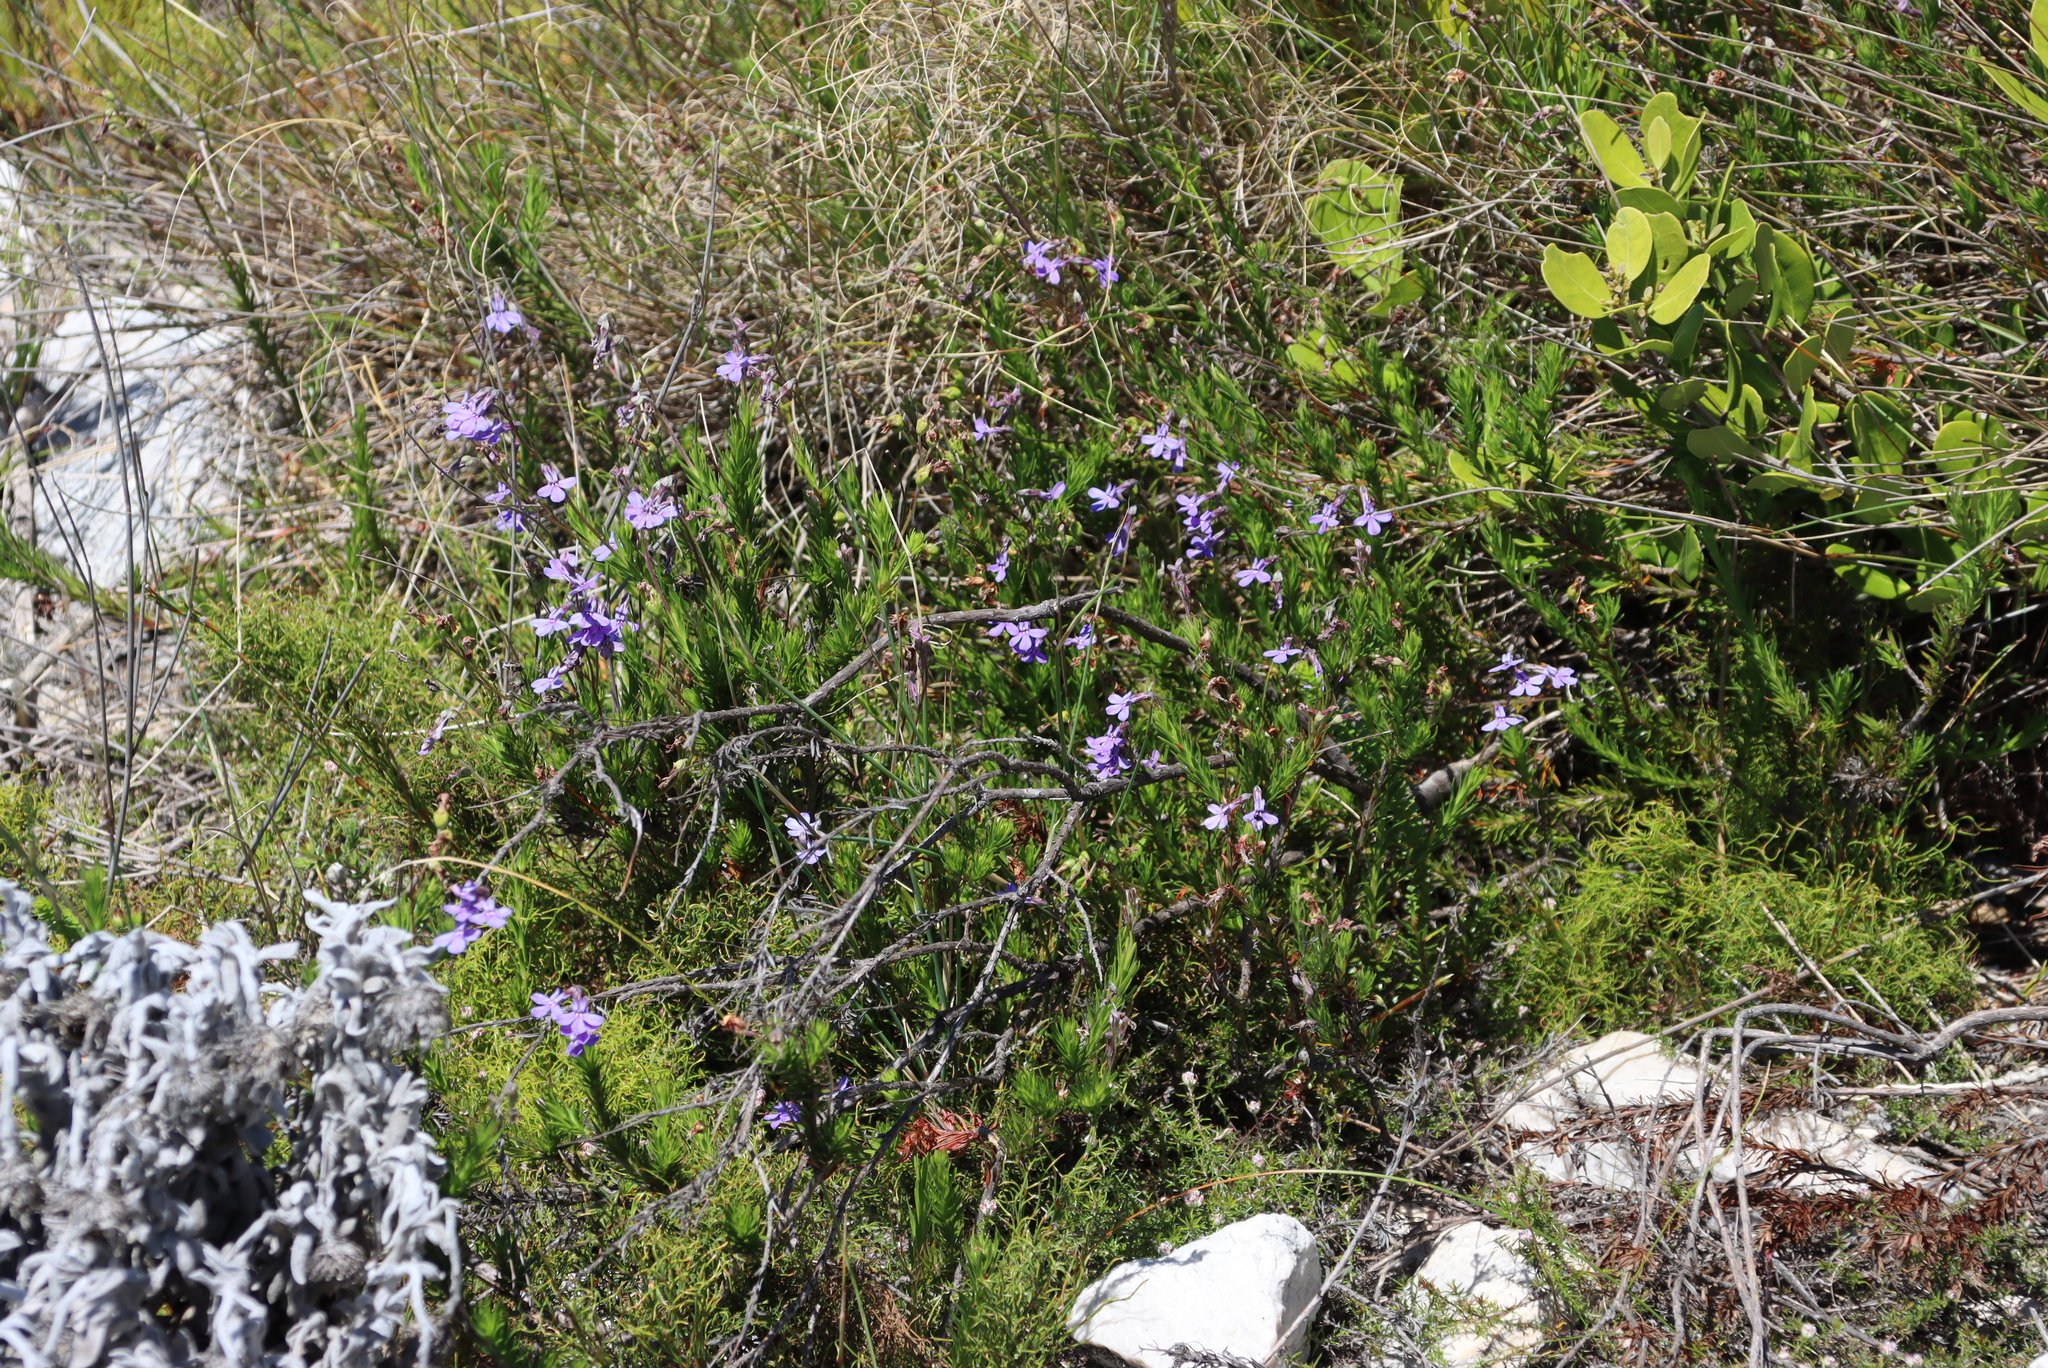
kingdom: Plantae
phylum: Tracheophyta
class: Magnoliopsida
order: Asterales
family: Campanulaceae
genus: Lobelia
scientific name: Lobelia pinifolia
